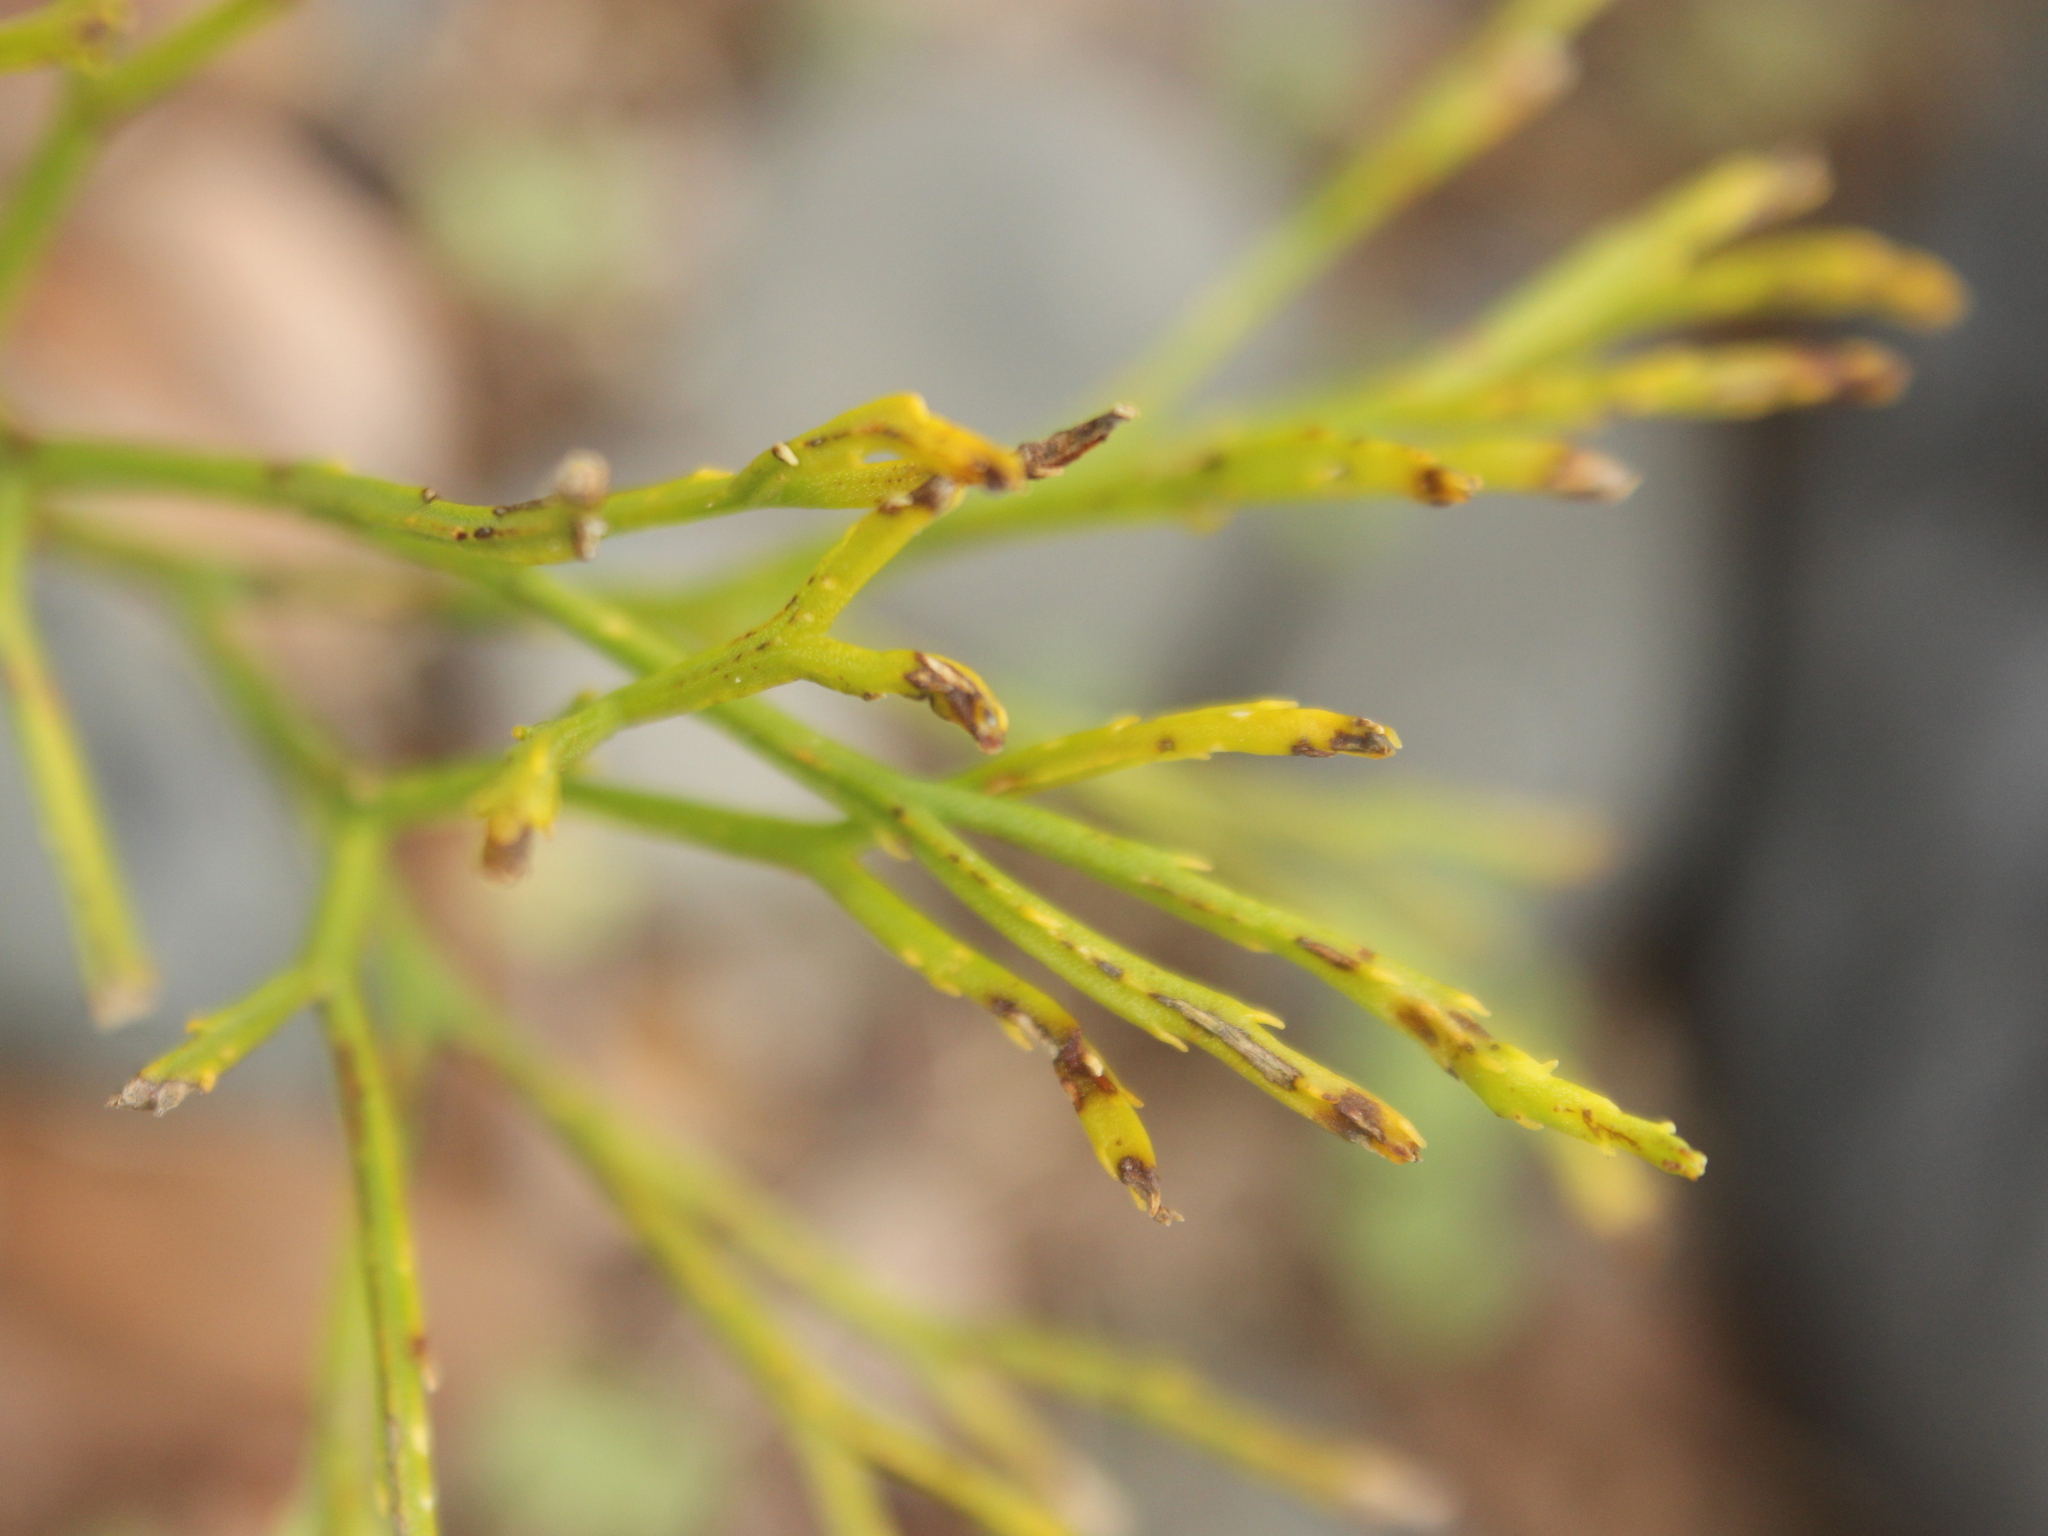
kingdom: Plantae
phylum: Tracheophyta
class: Polypodiopsida
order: Psilotales
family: Psilotaceae
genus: Psilotum
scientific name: Psilotum nudum
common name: Skeleton fork fern
